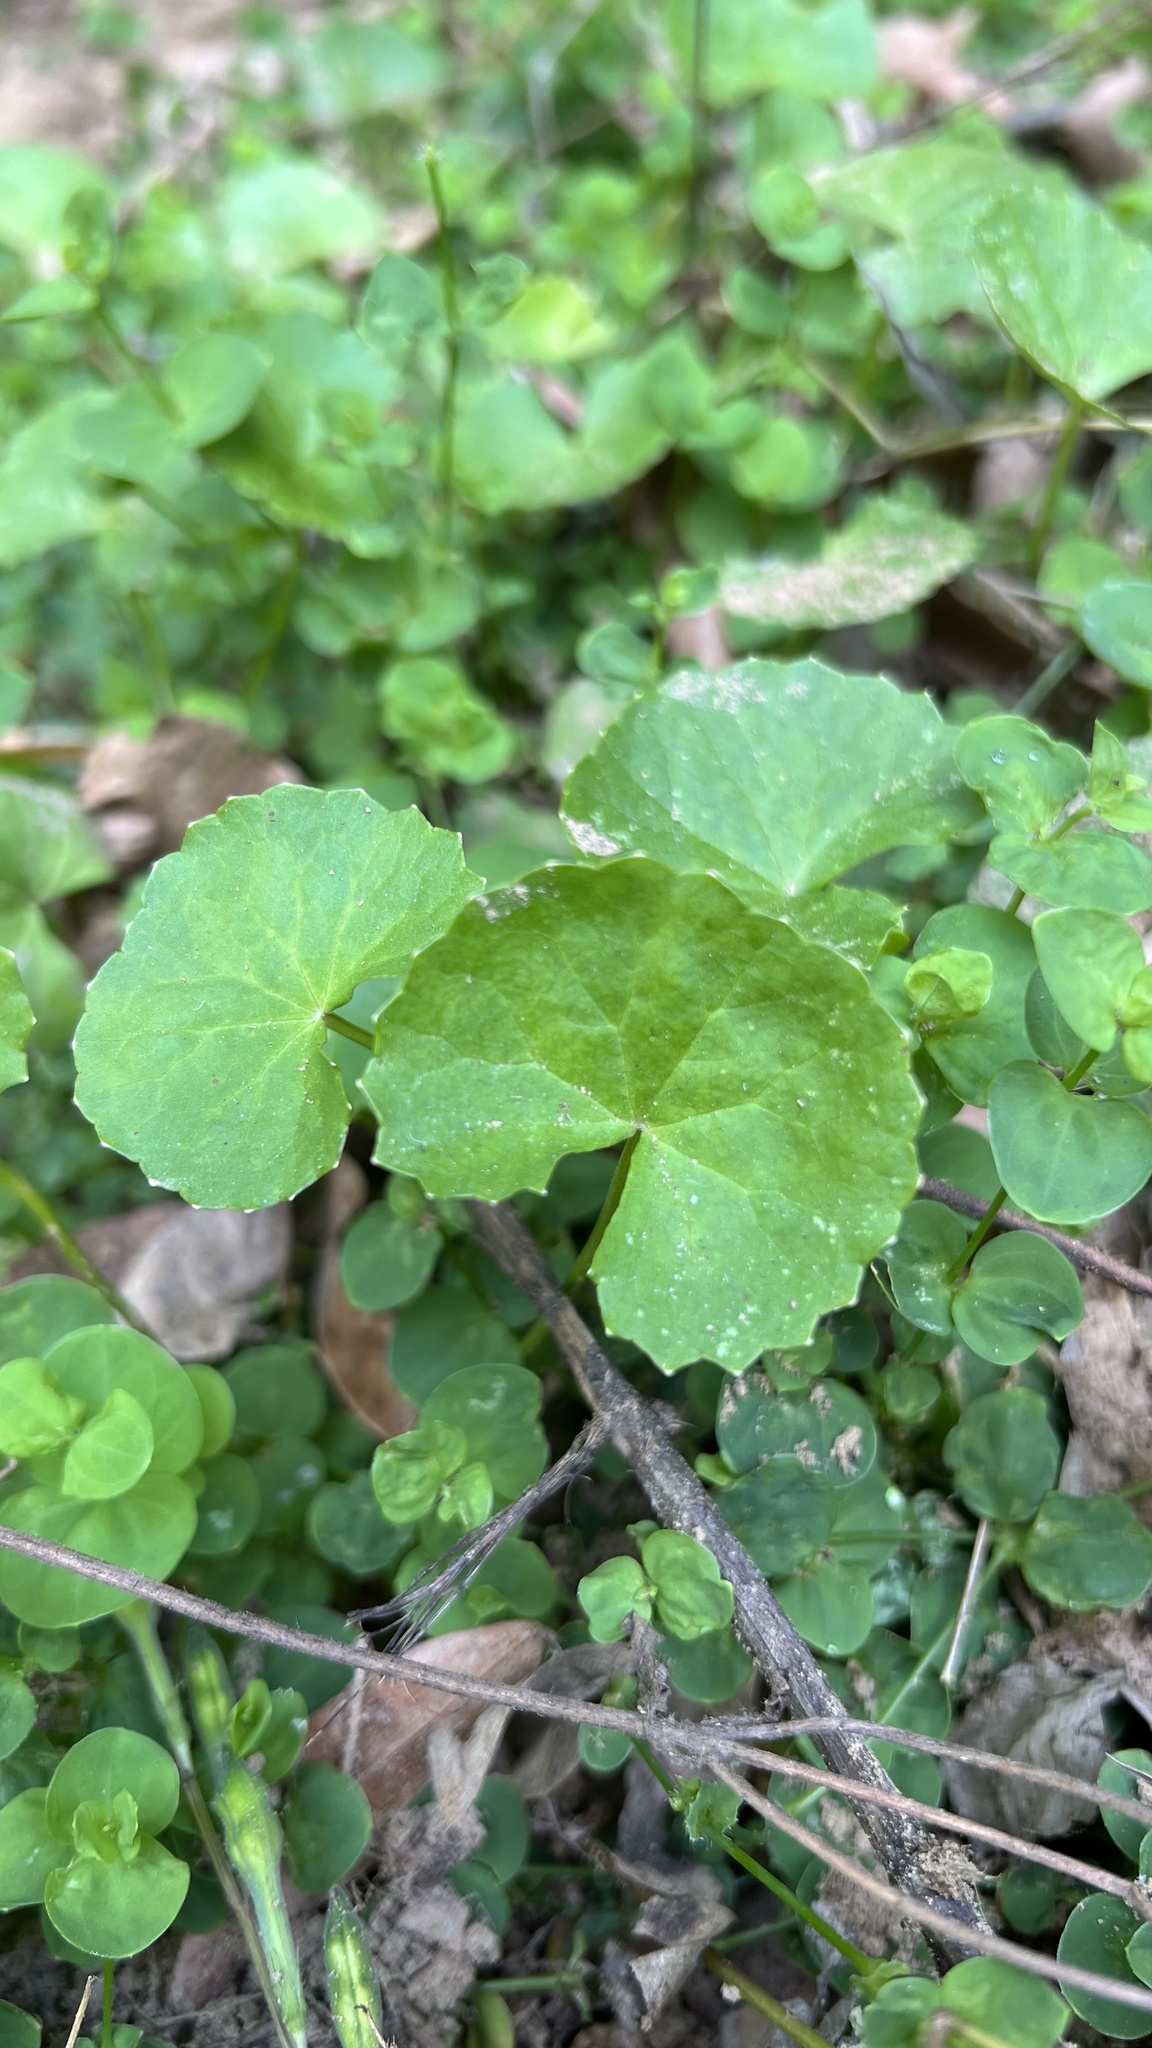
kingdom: Plantae
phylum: Tracheophyta
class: Magnoliopsida
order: Apiales
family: Apiaceae
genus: Centella
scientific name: Centella asiatica
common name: Spadeleaf
